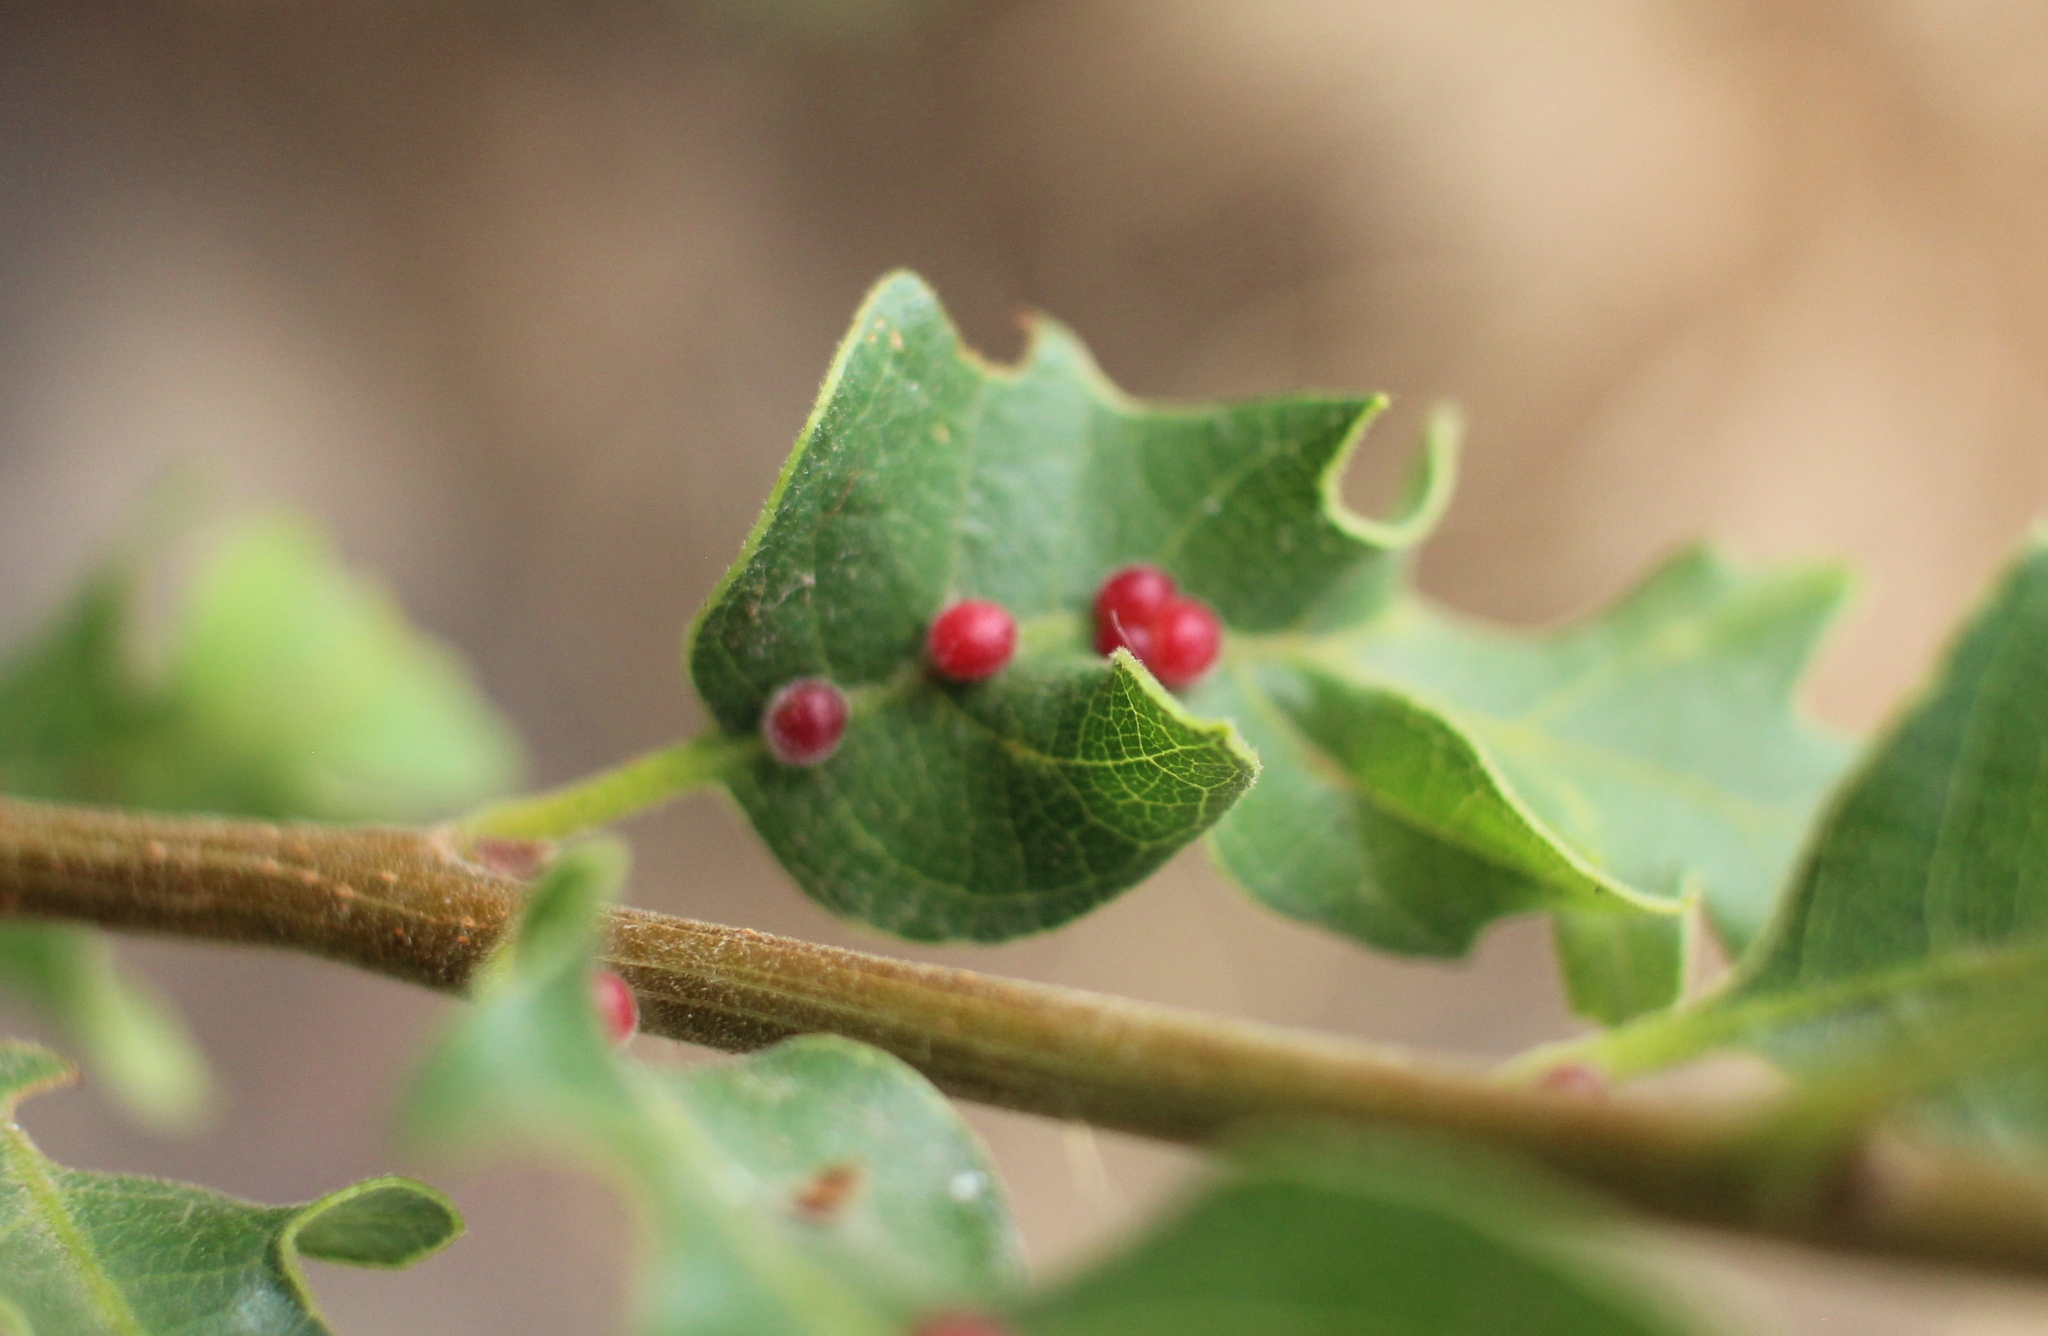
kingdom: Animalia
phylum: Arthropoda
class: Insecta
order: Hymenoptera
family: Cynipidae
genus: Trigonaspis
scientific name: Trigonaspis
